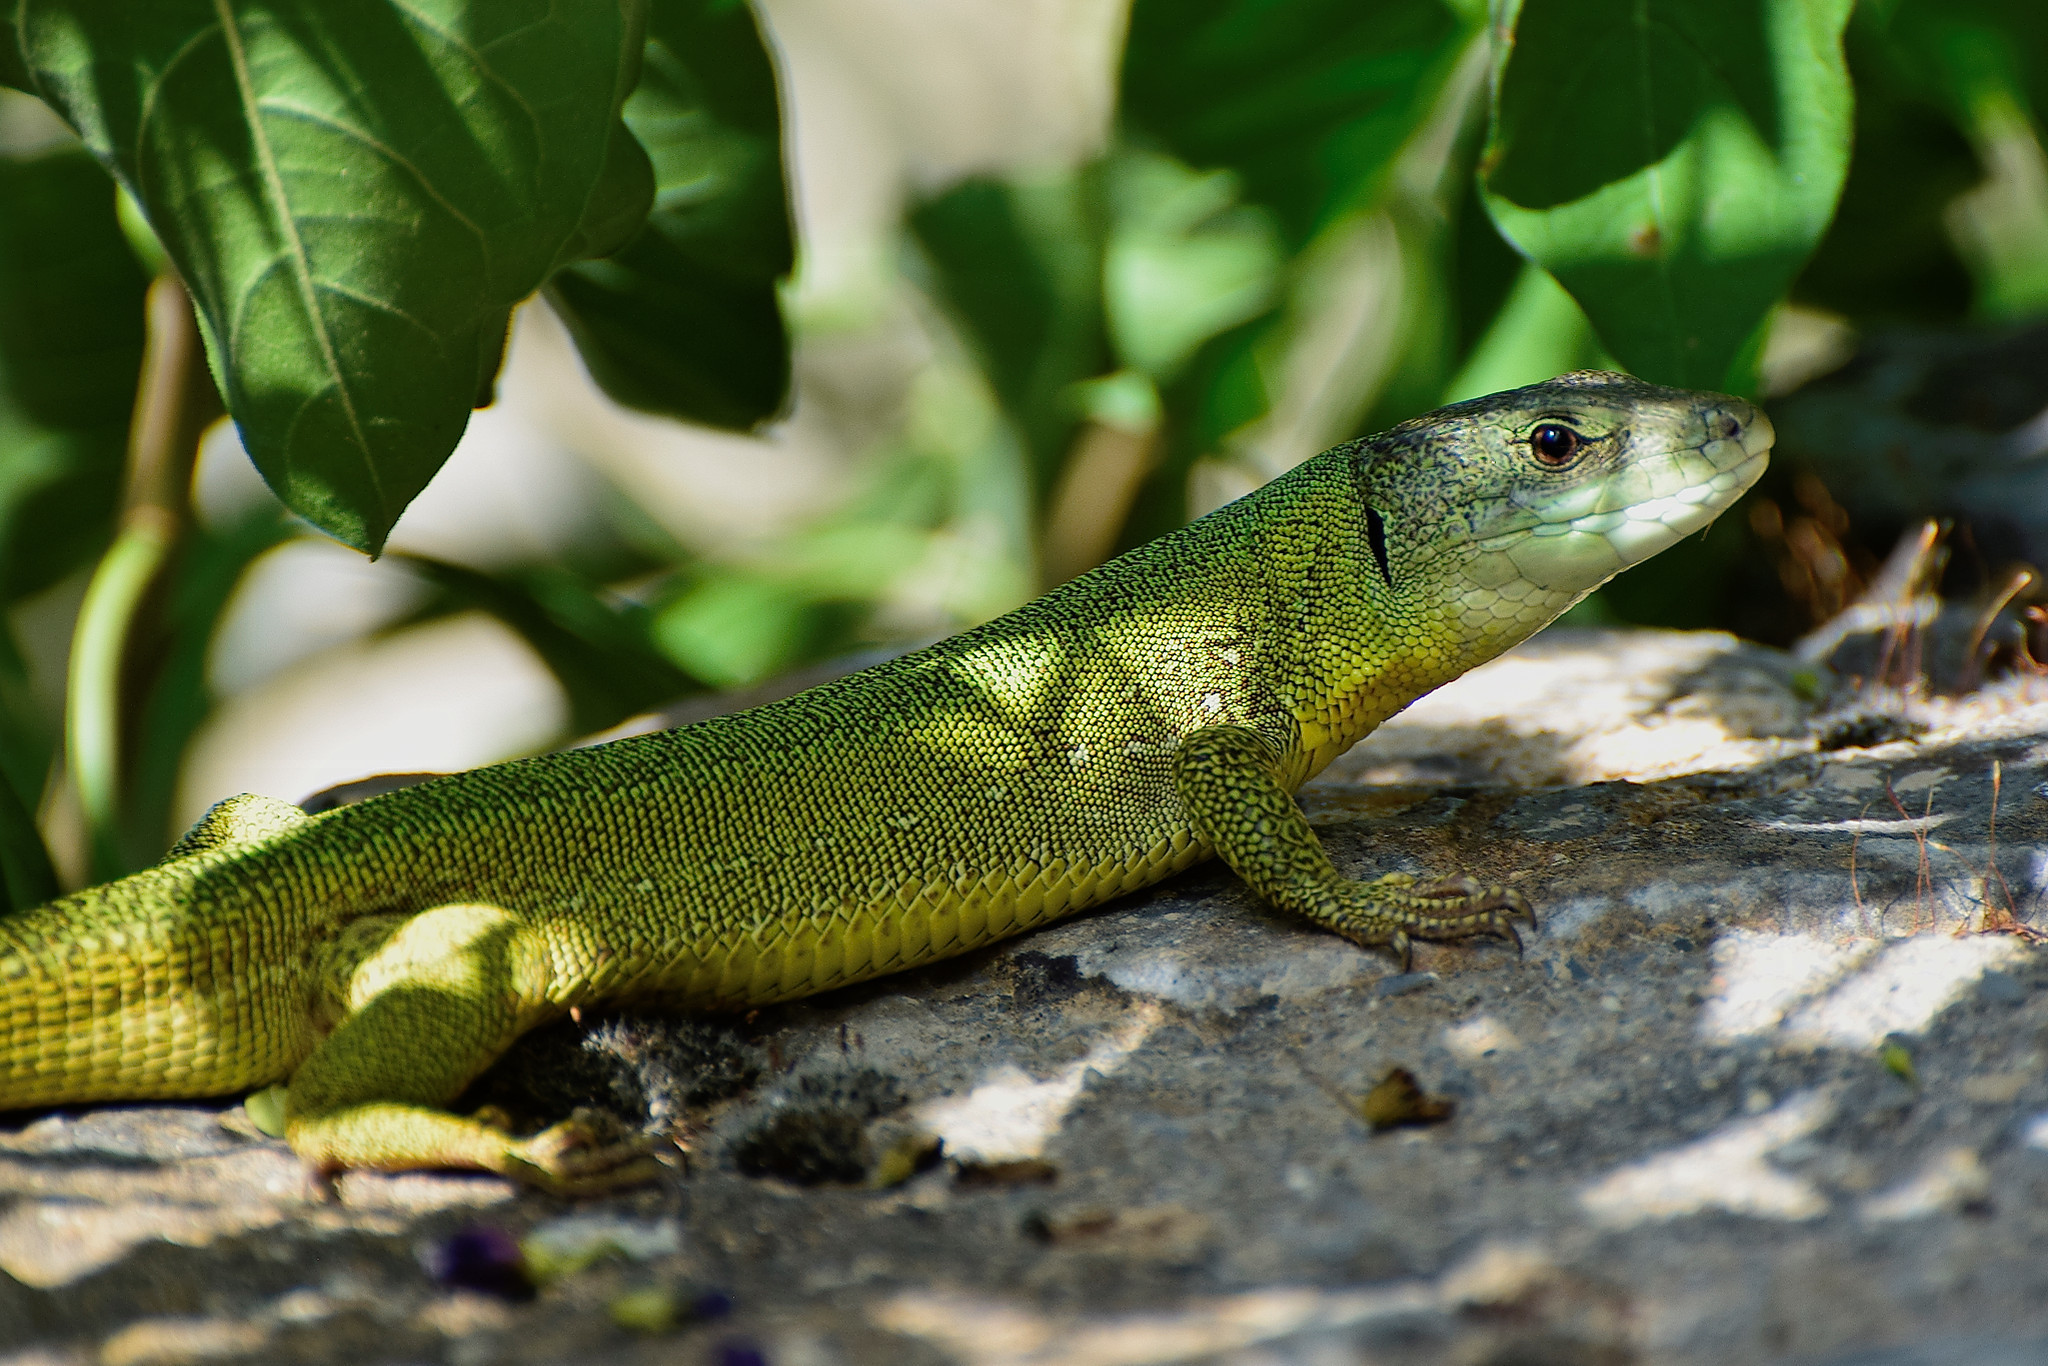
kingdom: Animalia
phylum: Chordata
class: Squamata
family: Lacertidae
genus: Lacerta
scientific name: Lacerta trilineata
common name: Balkan green lizard
